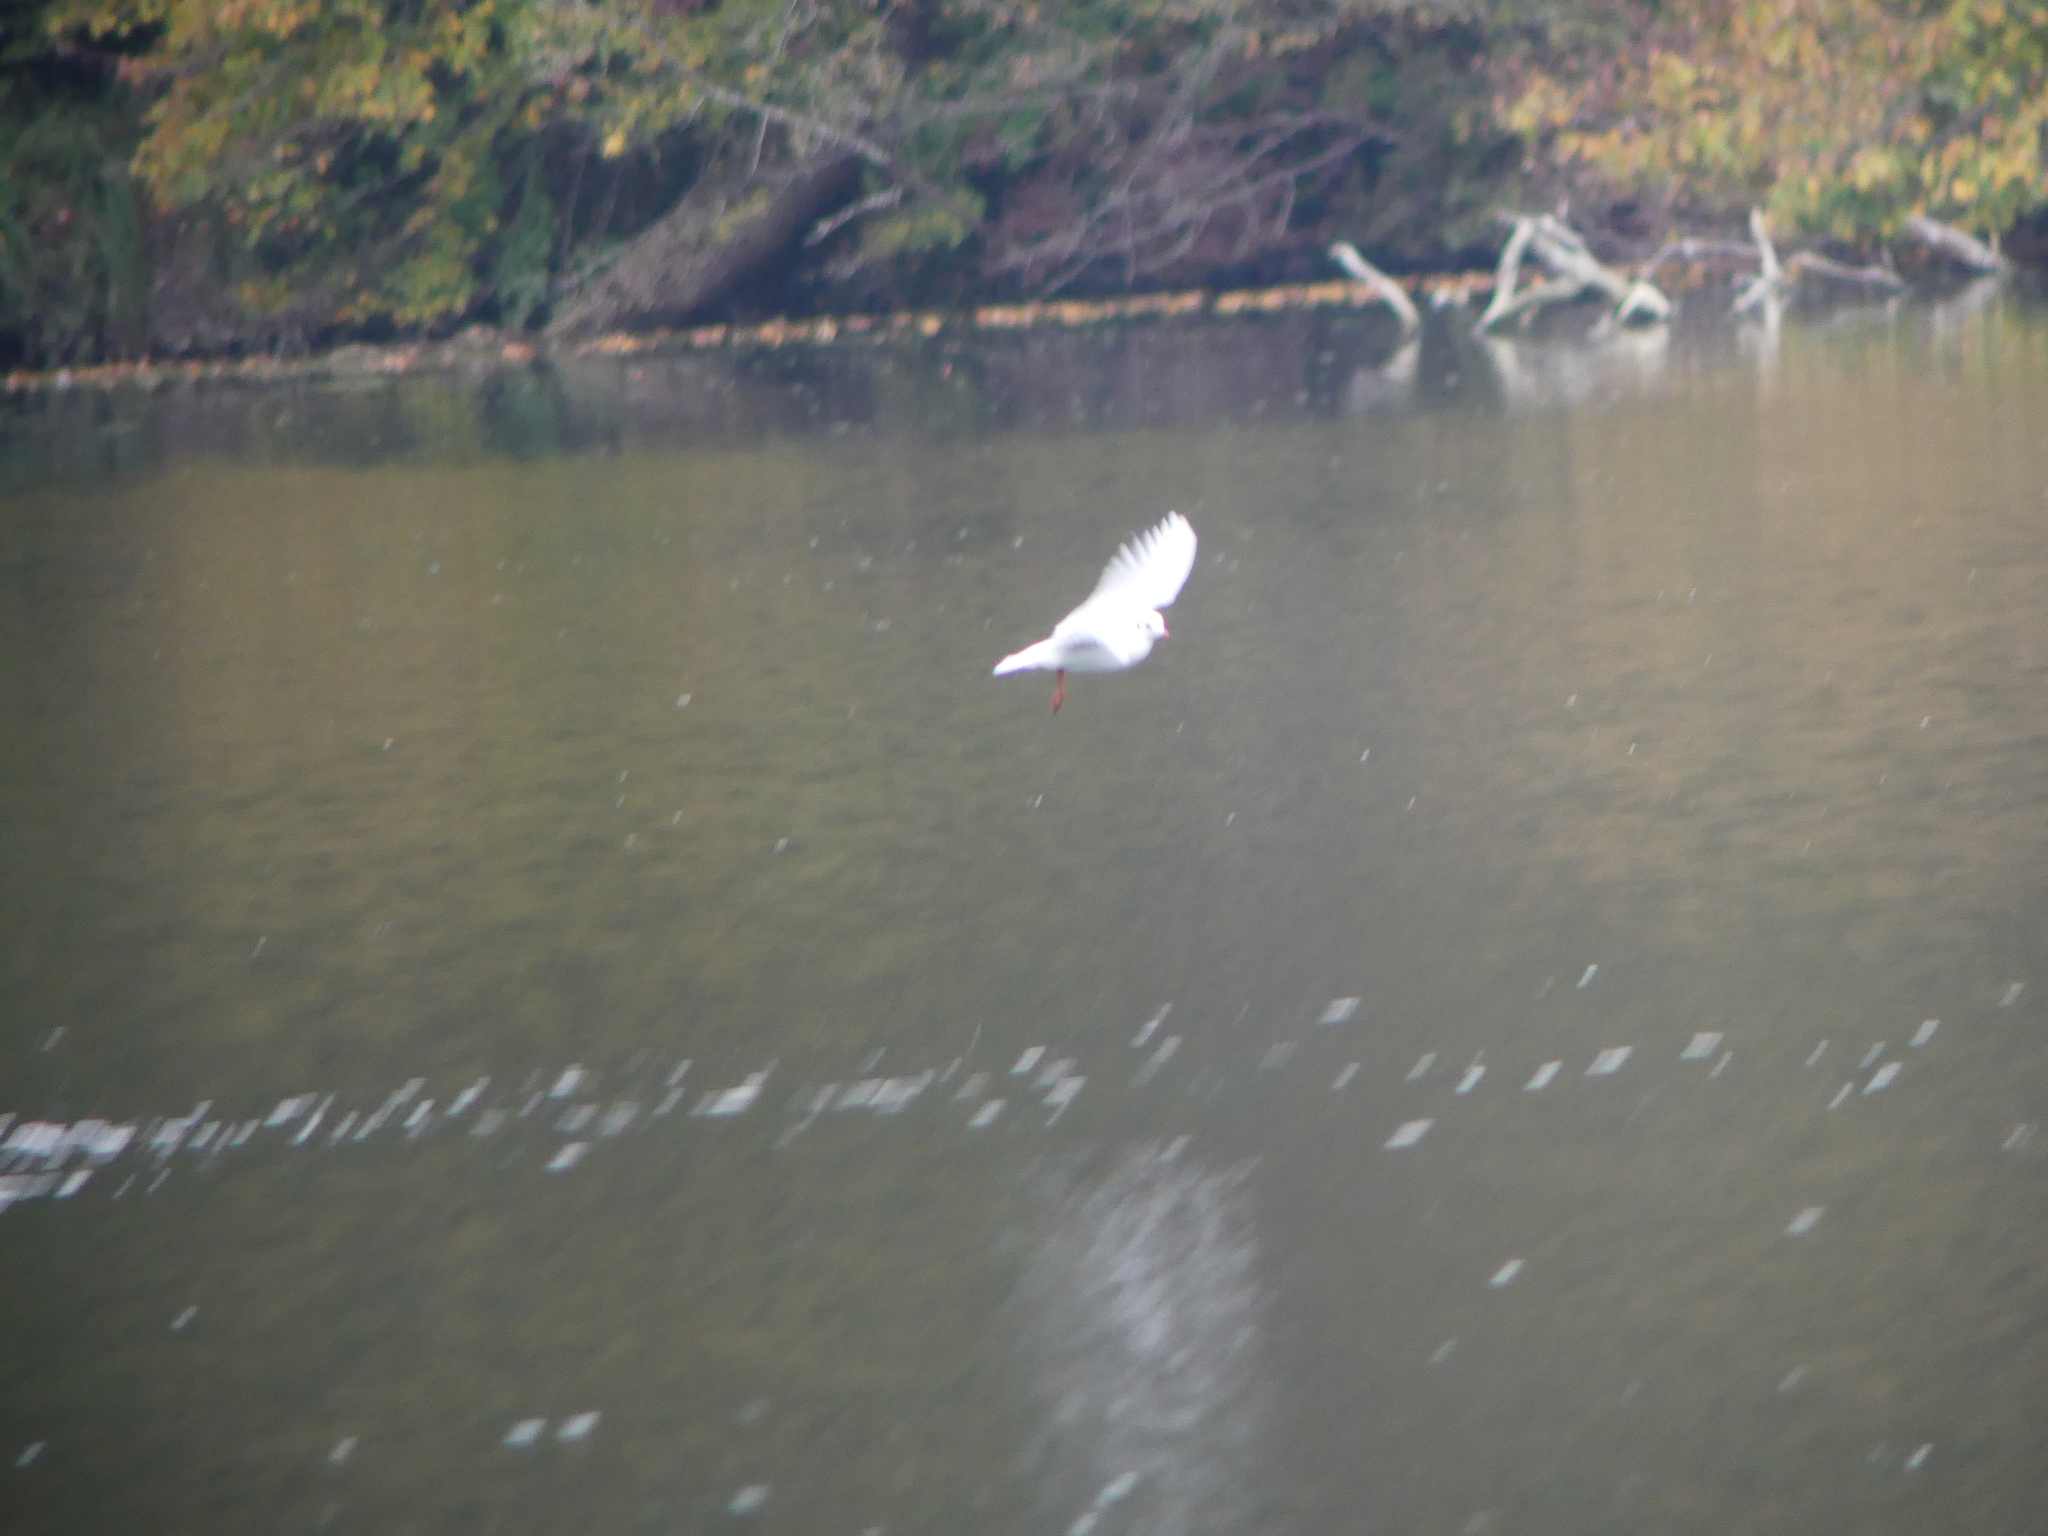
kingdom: Animalia
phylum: Chordata
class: Aves
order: Charadriiformes
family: Laridae
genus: Chroicocephalus
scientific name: Chroicocephalus ridibundus
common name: Black-headed gull
